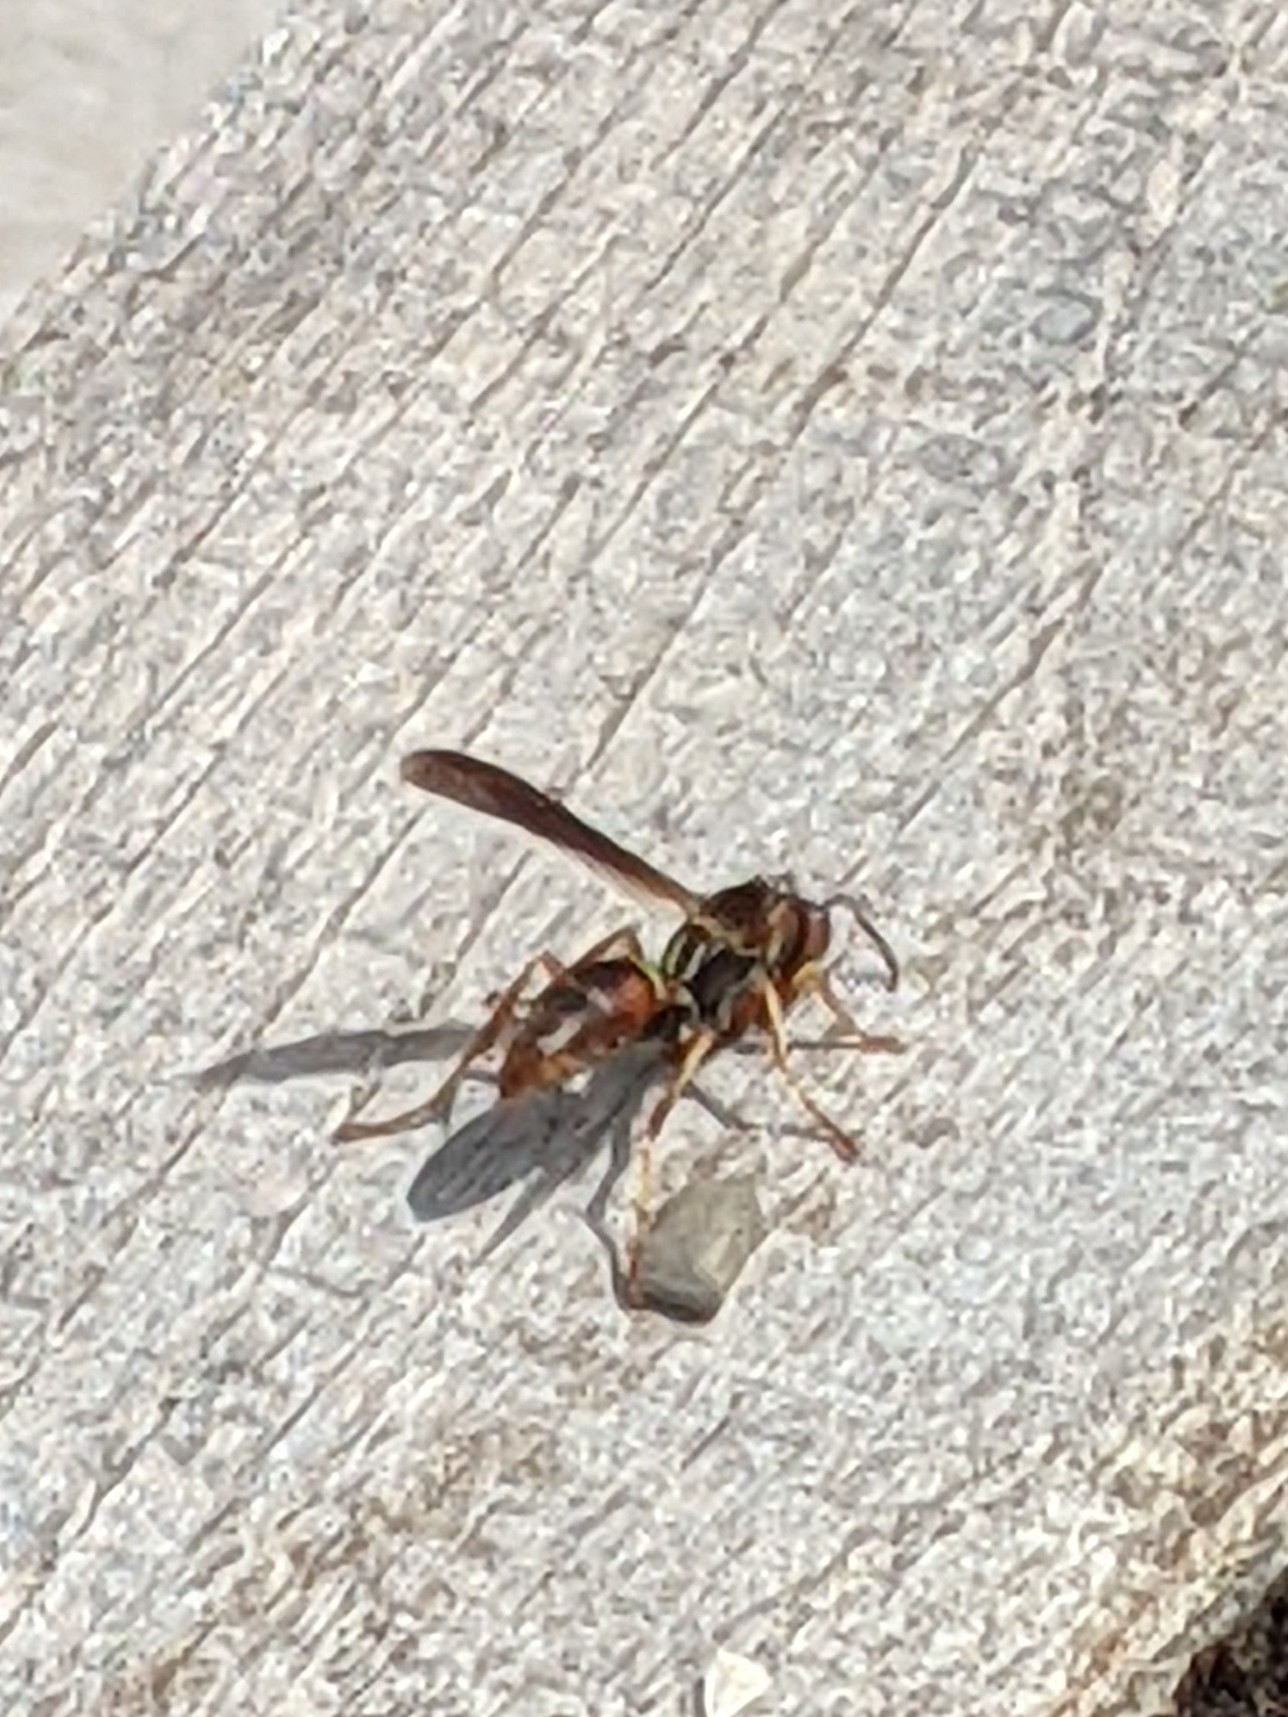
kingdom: Animalia
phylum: Arthropoda
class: Insecta
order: Hymenoptera
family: Eumenidae
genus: Polistes
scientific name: Polistes fuscatus
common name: Dark paper wasp
